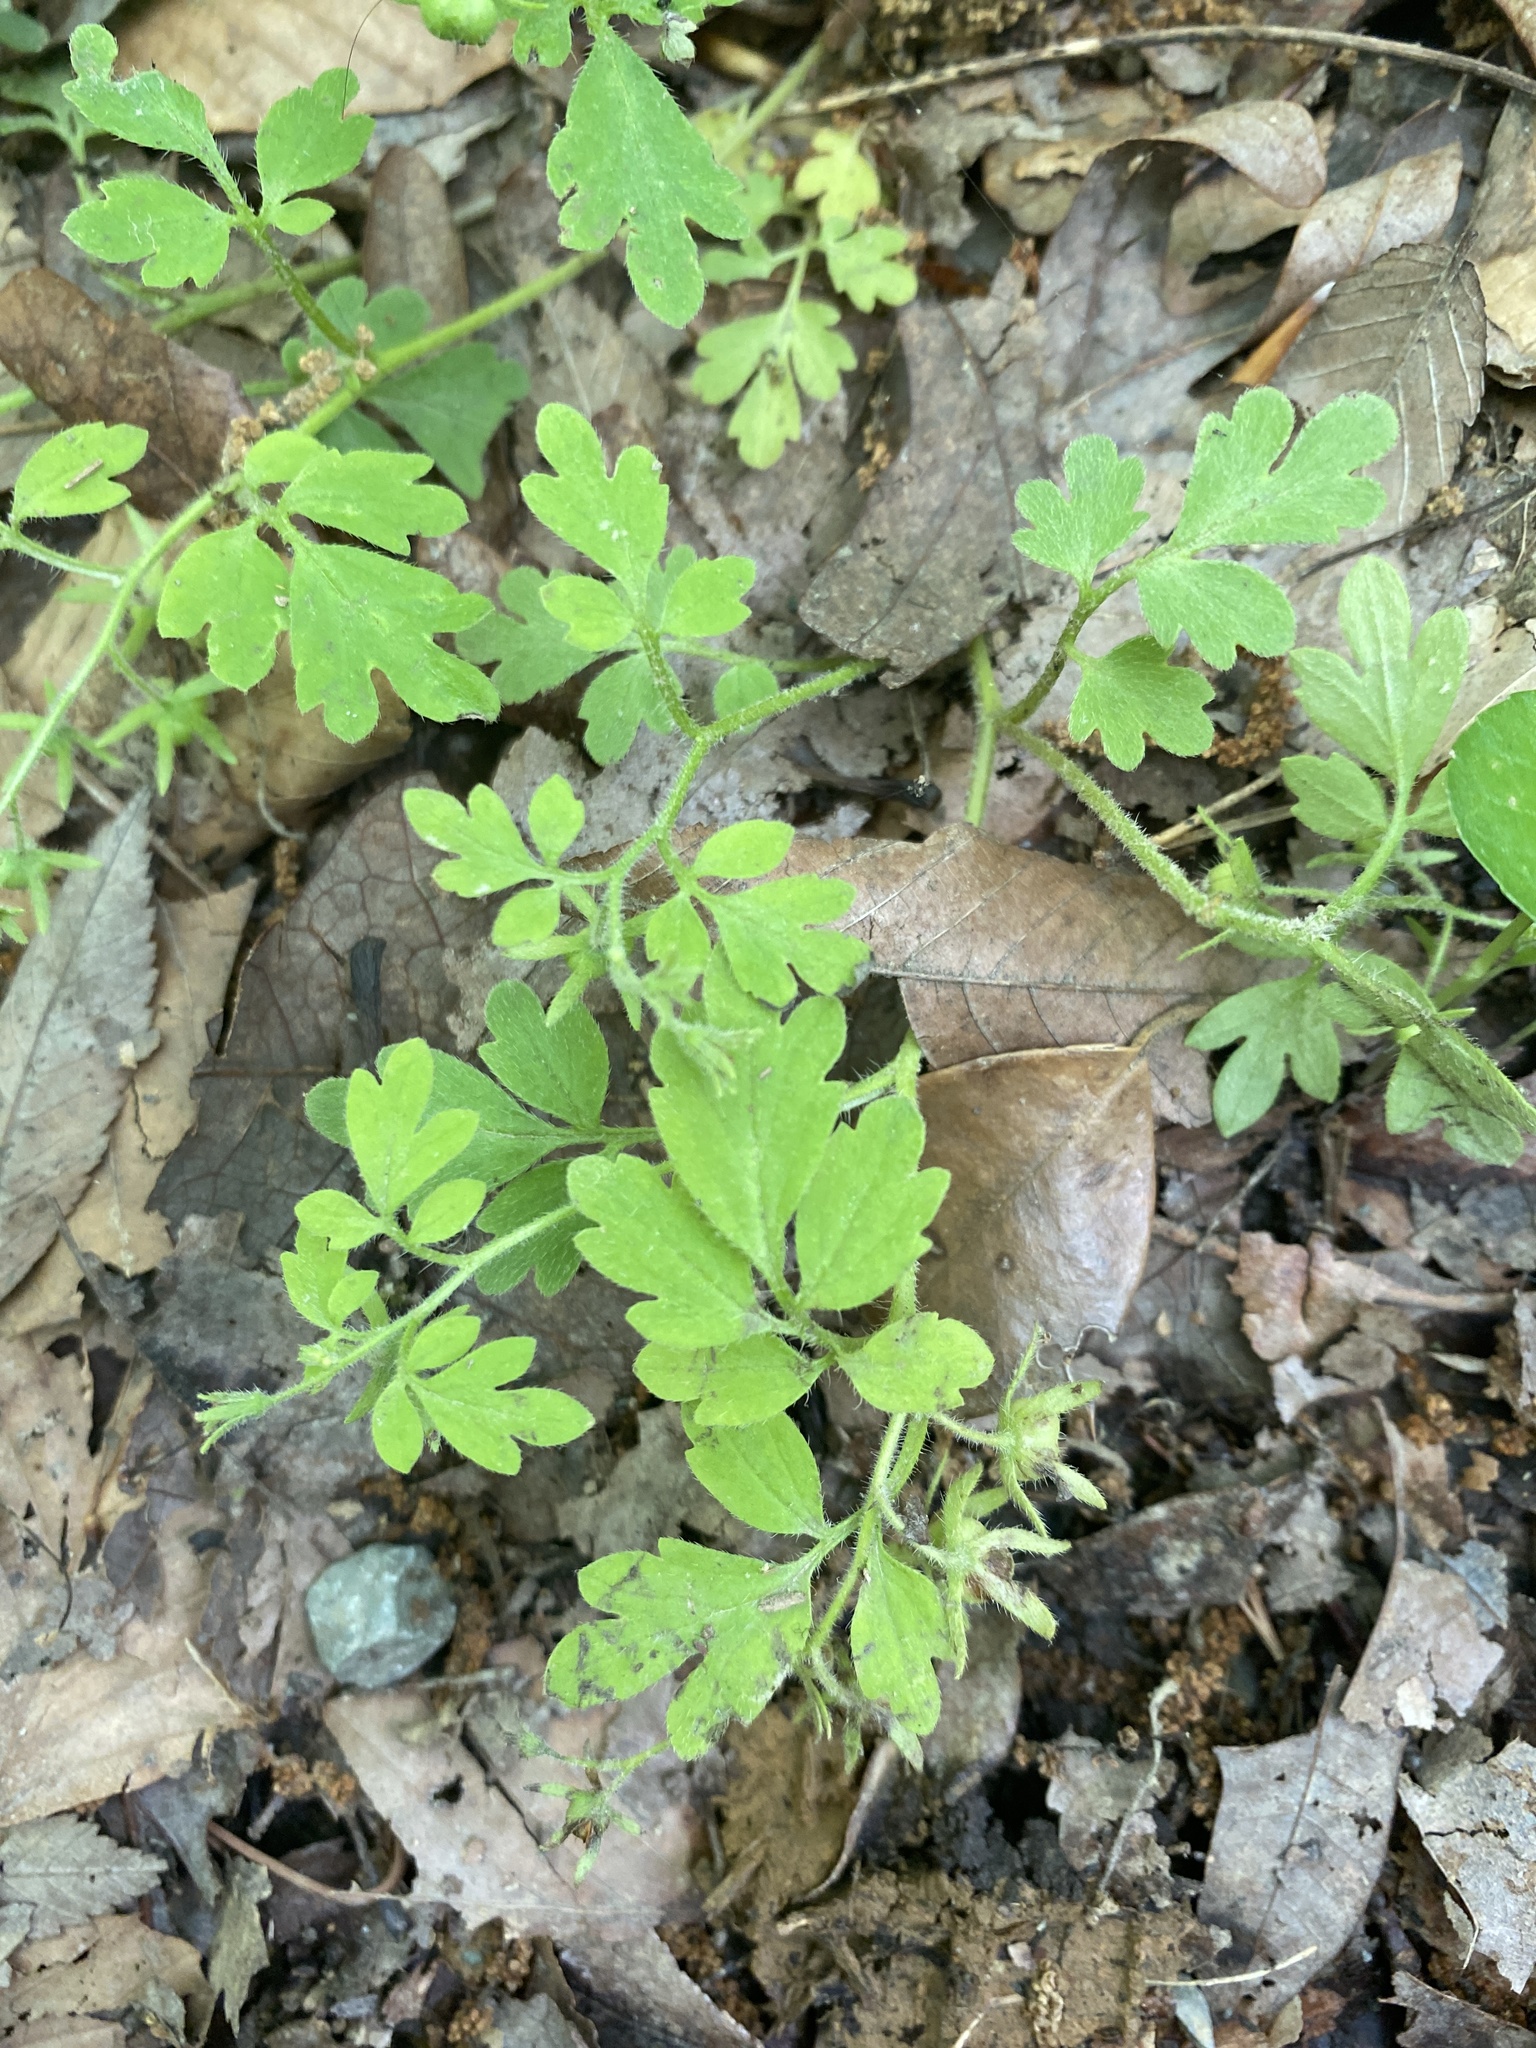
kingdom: Plantae
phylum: Tracheophyta
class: Magnoliopsida
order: Boraginales
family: Hydrophyllaceae
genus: Phacelia
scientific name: Phacelia covillei
